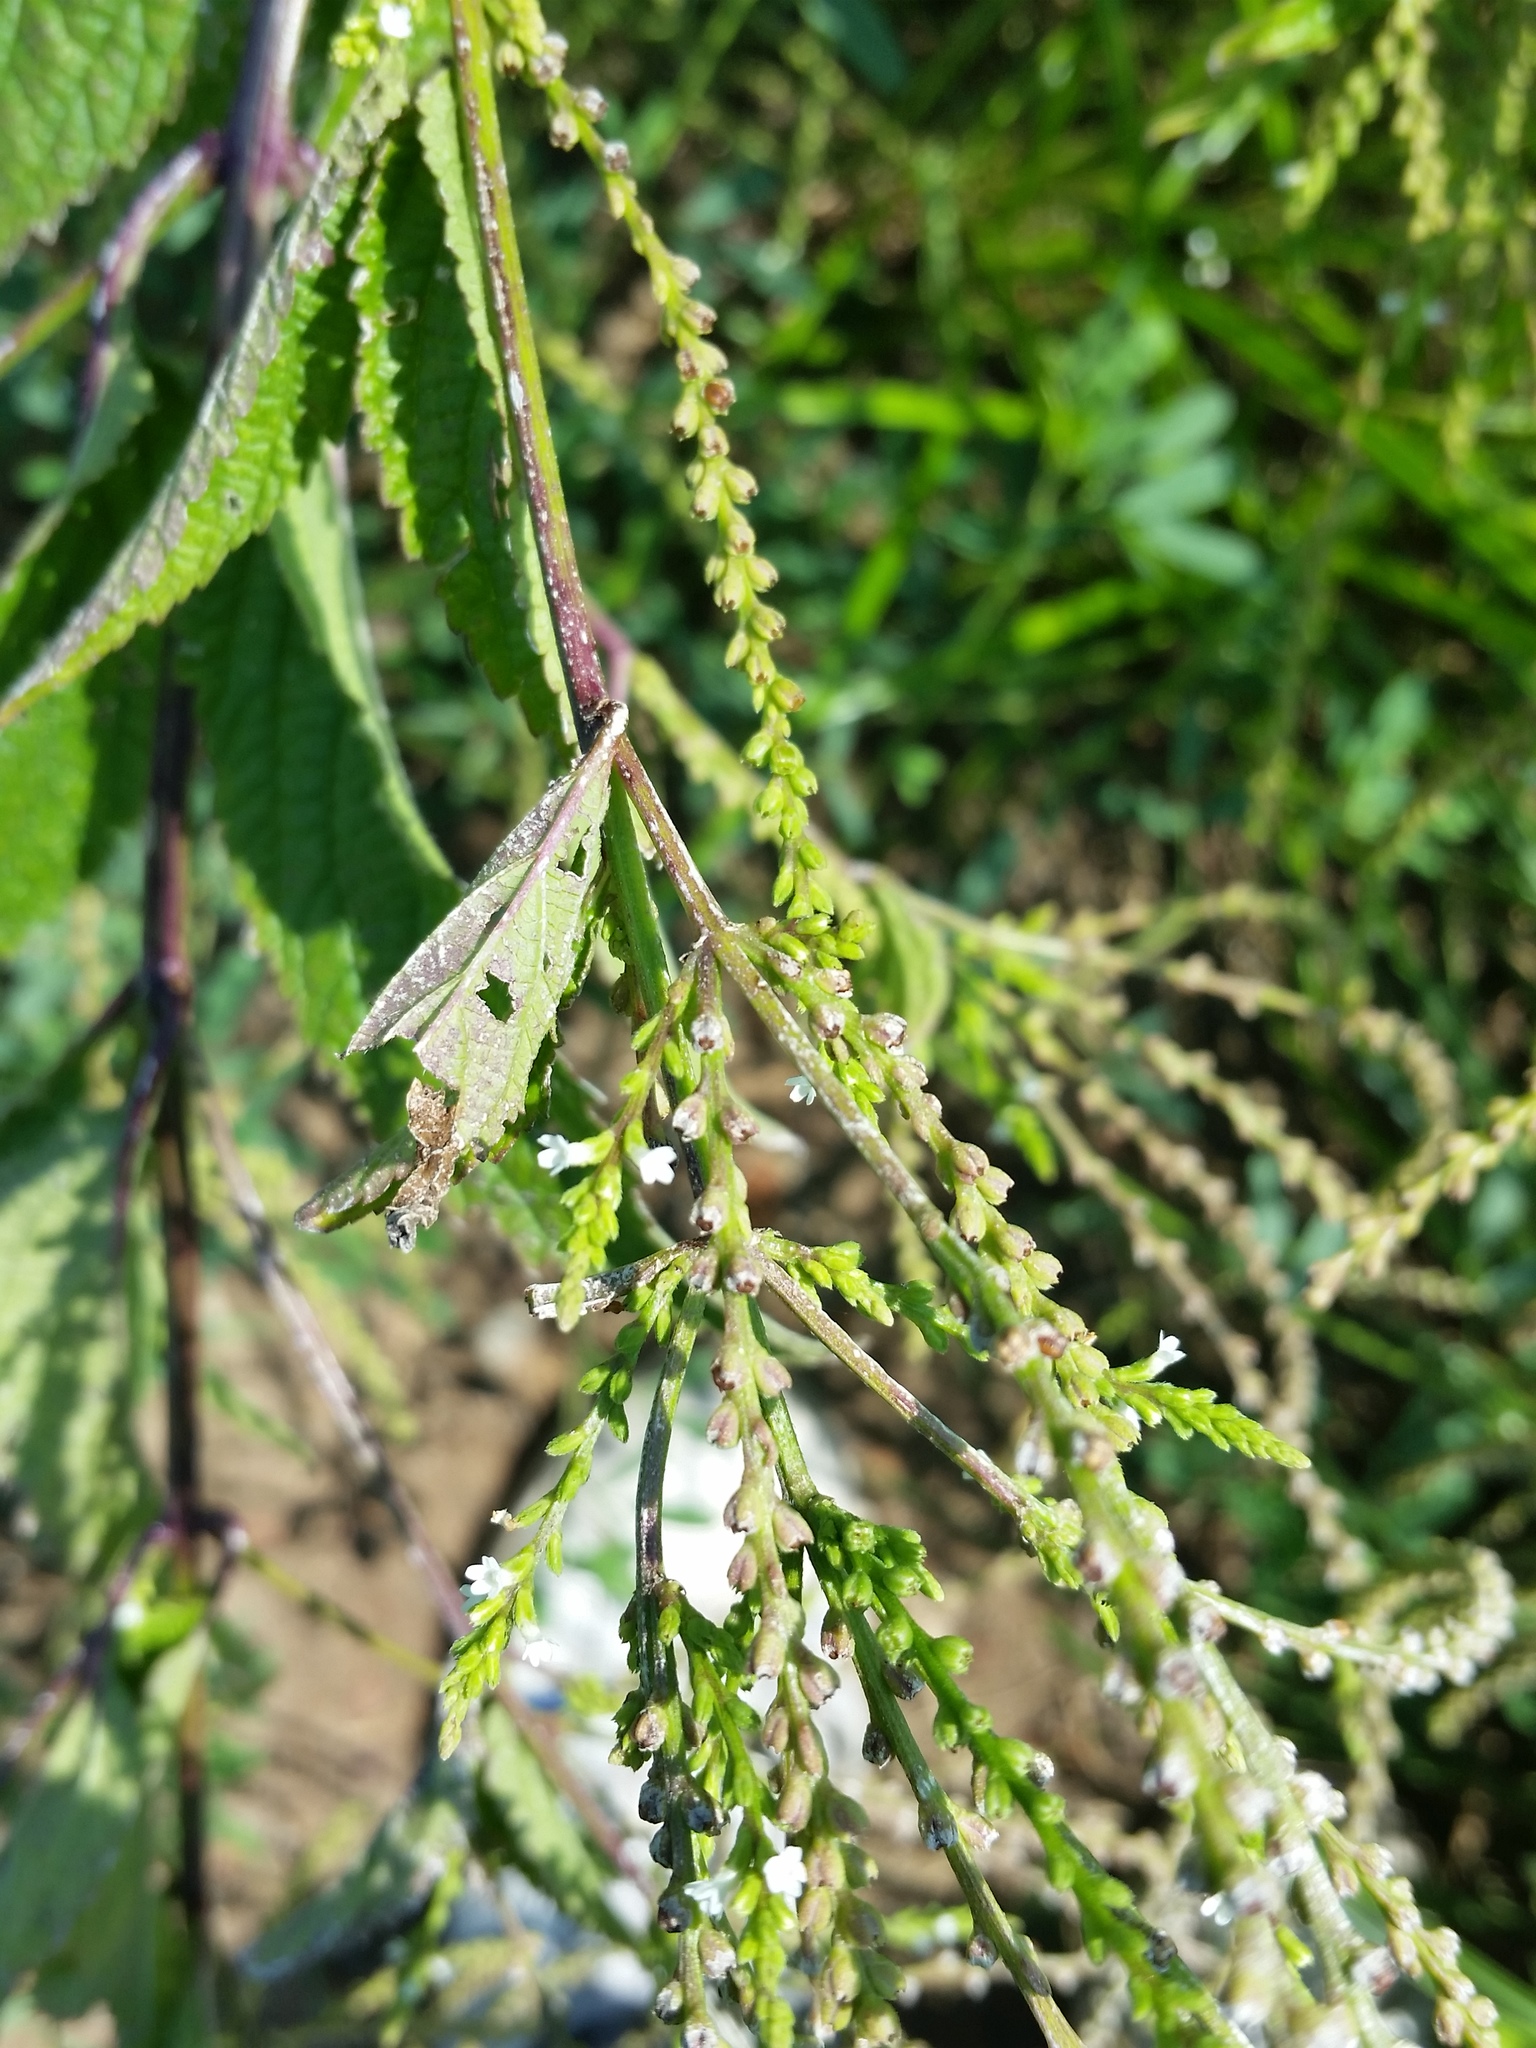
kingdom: Plantae
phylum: Tracheophyta
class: Magnoliopsida
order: Lamiales
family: Verbenaceae
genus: Verbena
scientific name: Verbena urticifolia
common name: Nettle-leaved vervain
